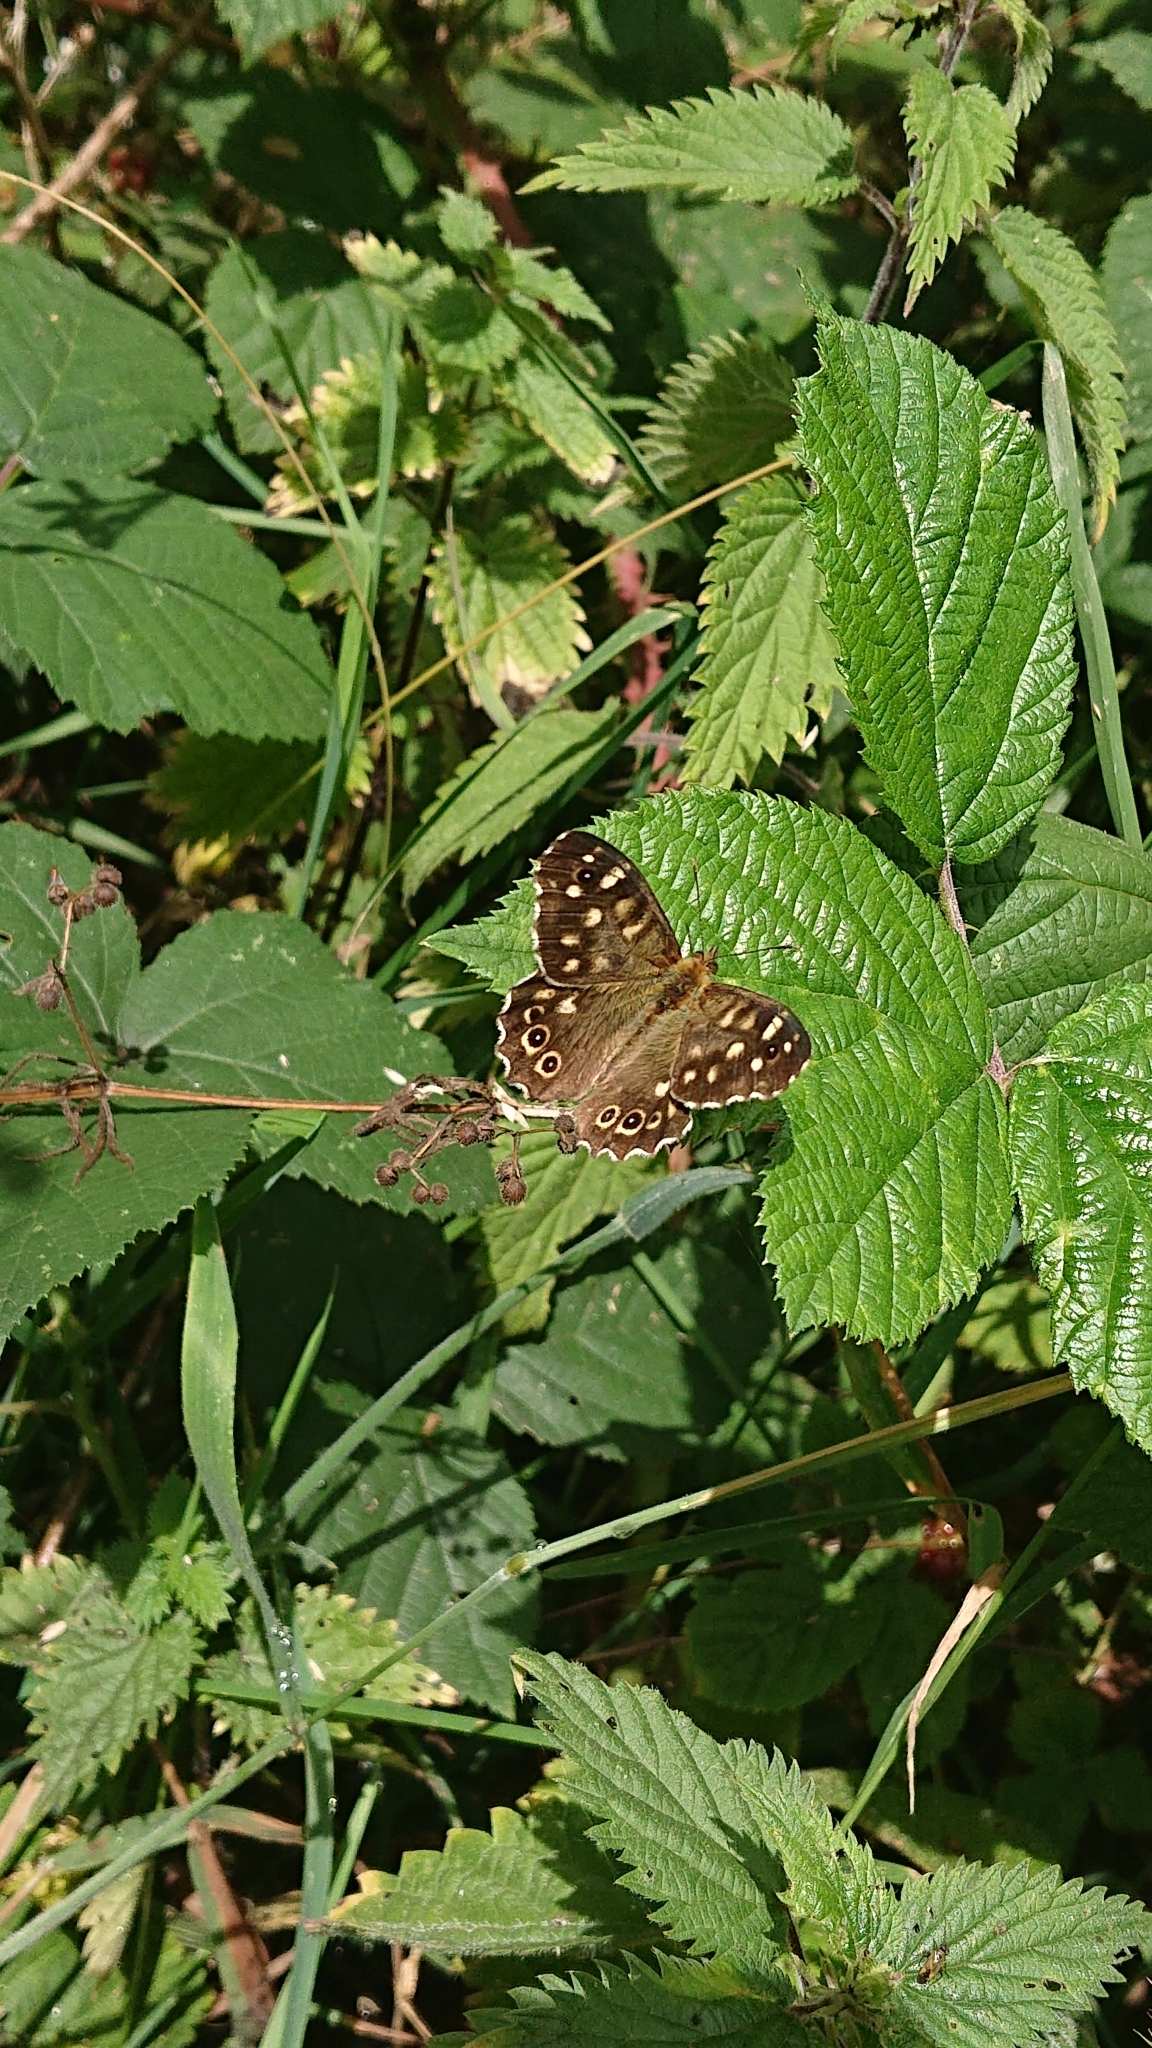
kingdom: Animalia
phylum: Arthropoda
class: Insecta
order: Lepidoptera
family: Nymphalidae
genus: Pararge
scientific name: Pararge aegeria
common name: Speckled wood
